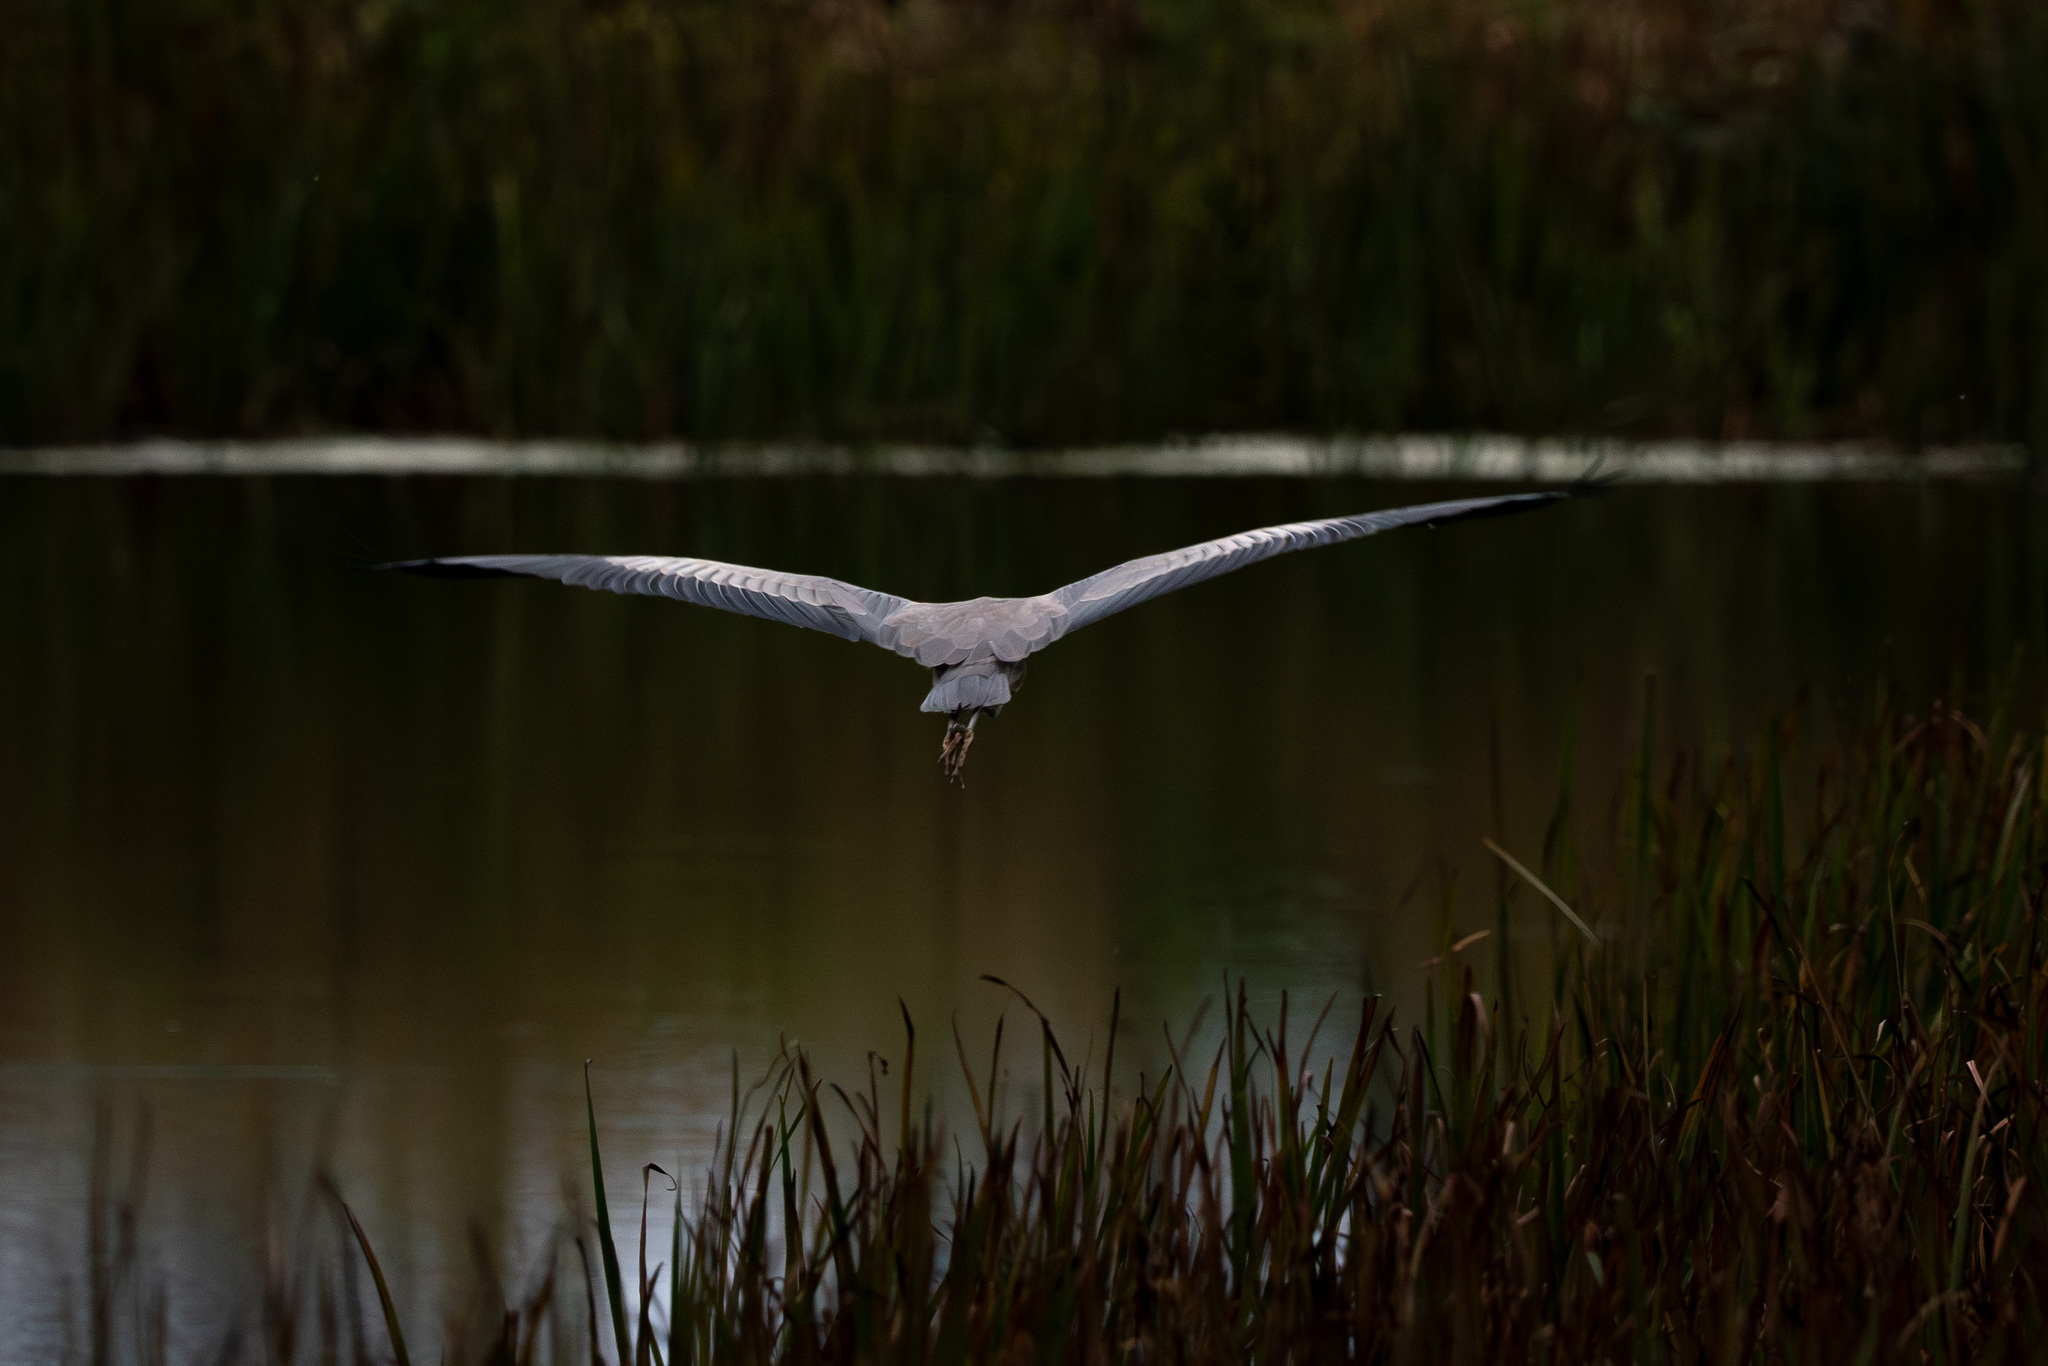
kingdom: Animalia
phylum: Chordata
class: Aves
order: Pelecaniformes
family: Ardeidae
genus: Ardea
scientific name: Ardea herodias
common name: Great blue heron
